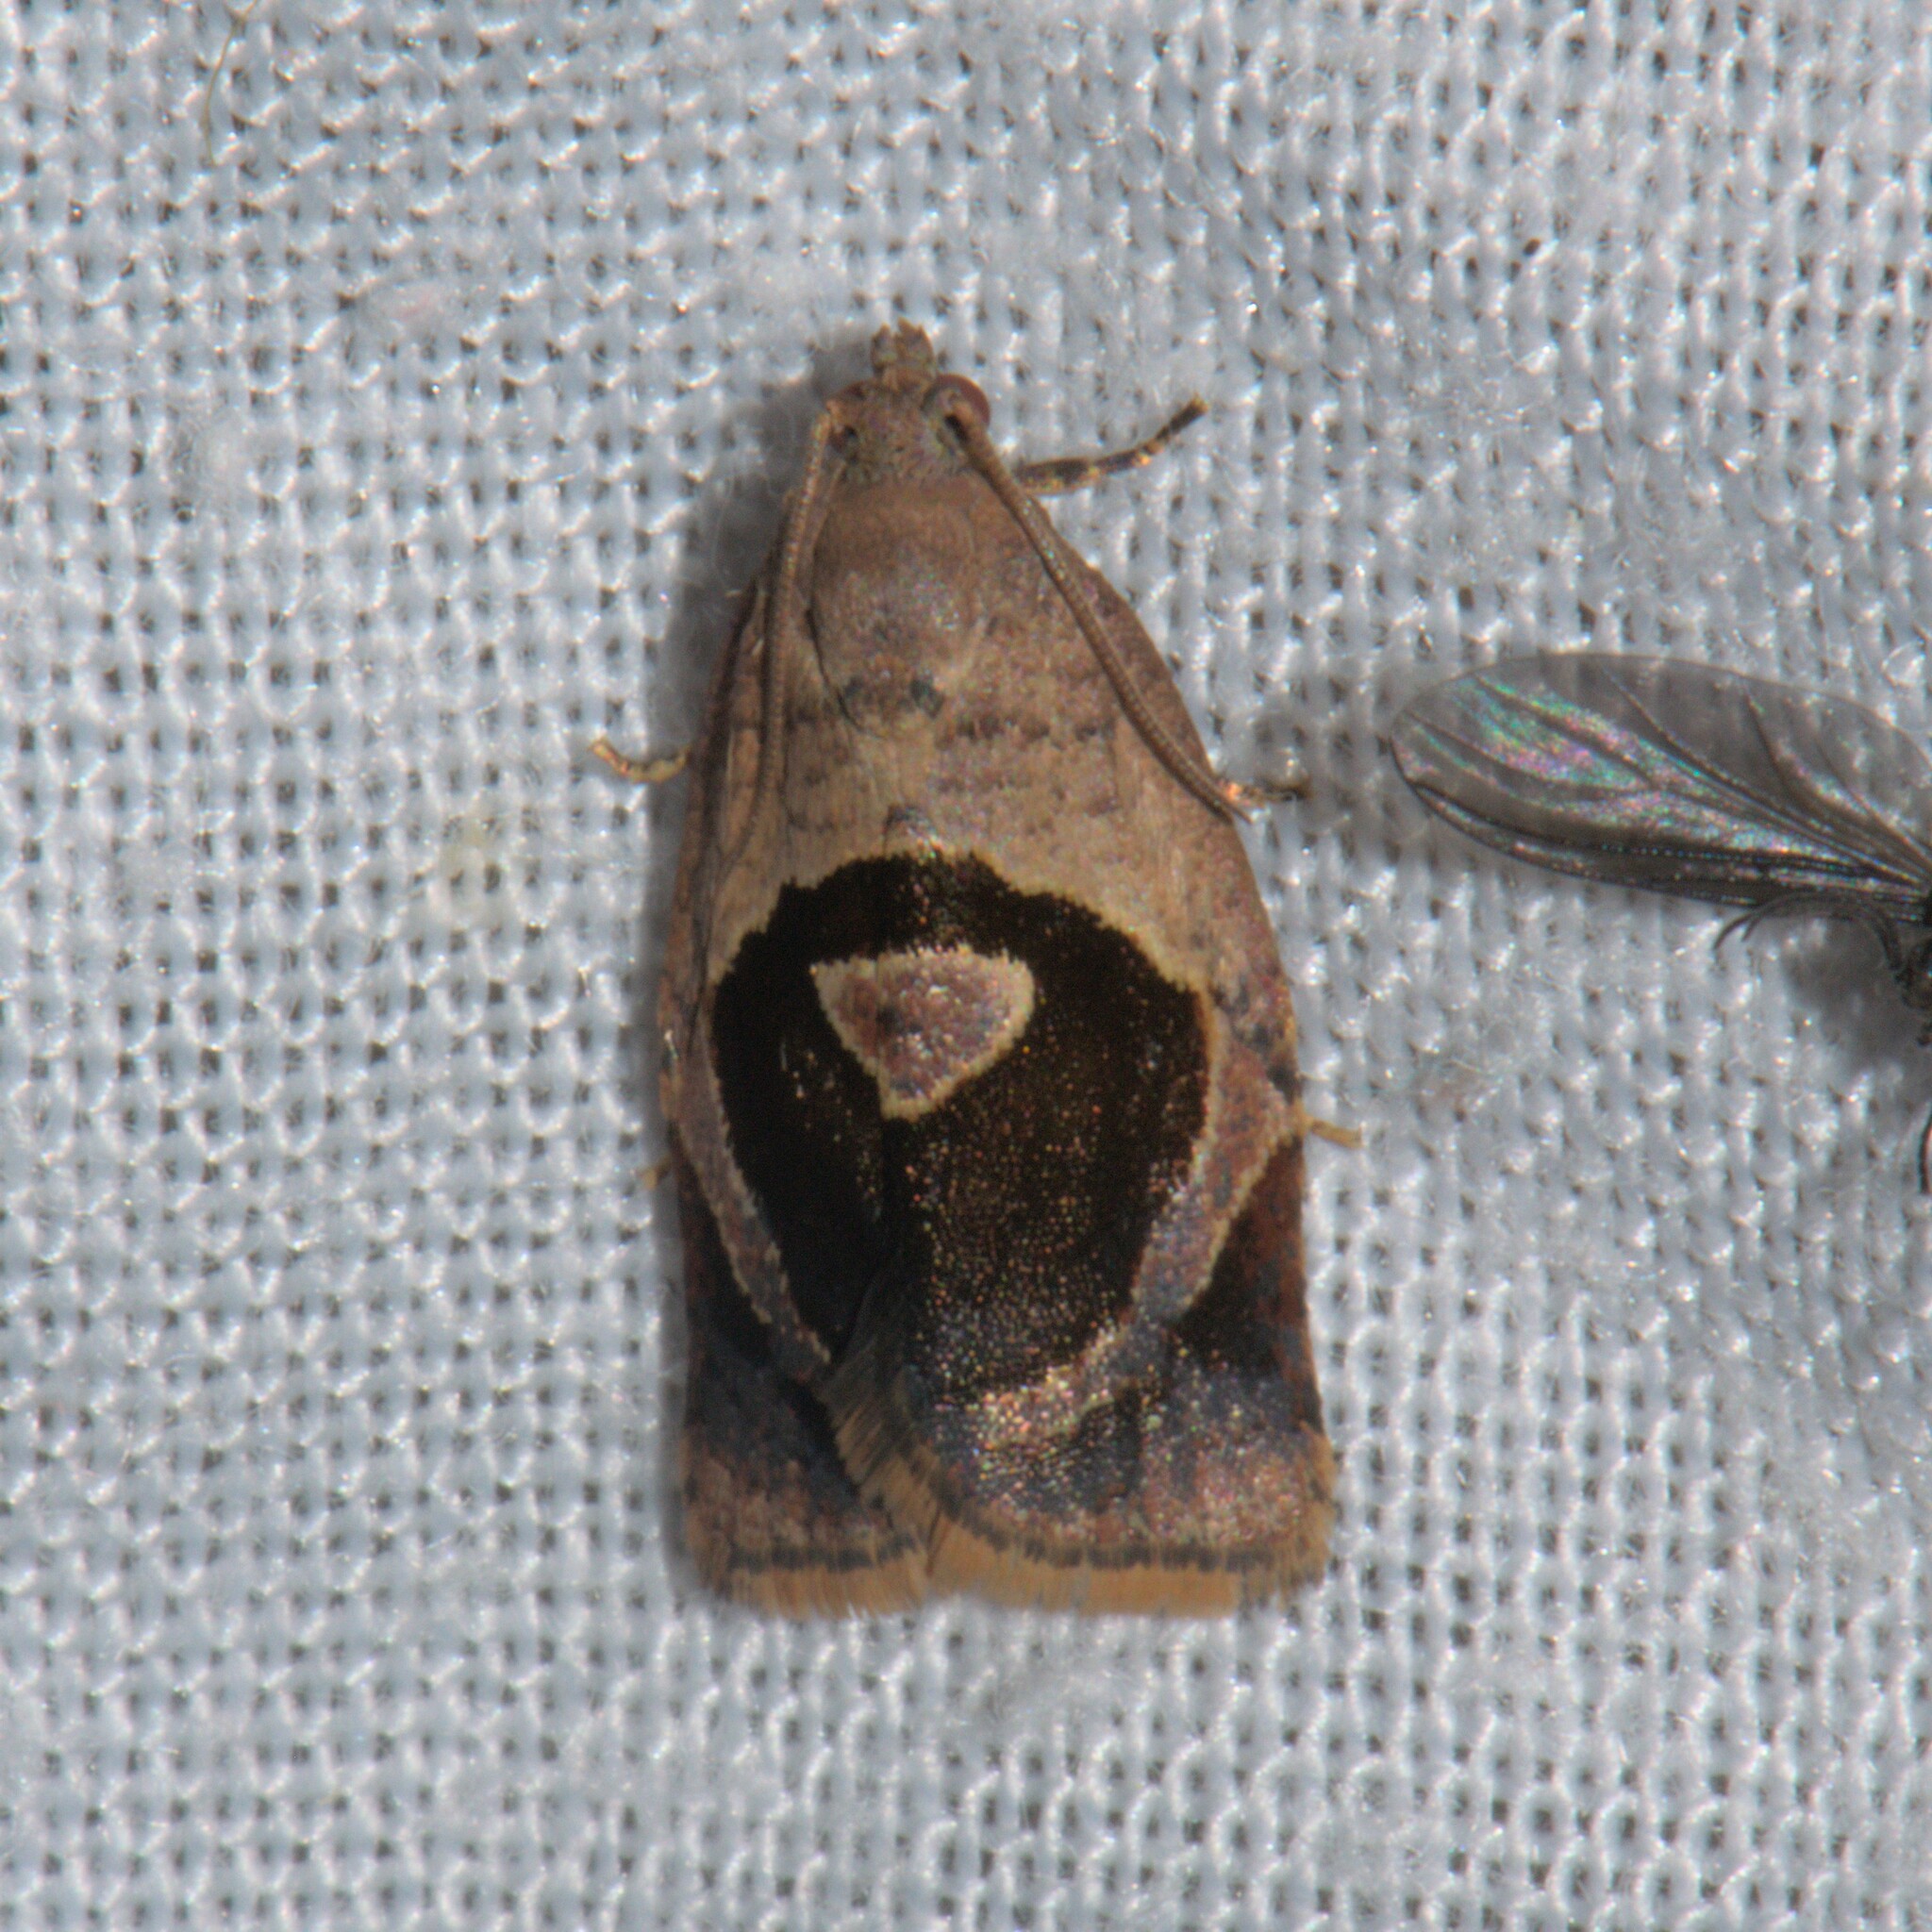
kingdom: Animalia
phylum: Arthropoda
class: Insecta
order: Lepidoptera
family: Tortricidae
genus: Isodemis
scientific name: Isodemis illiberalis
